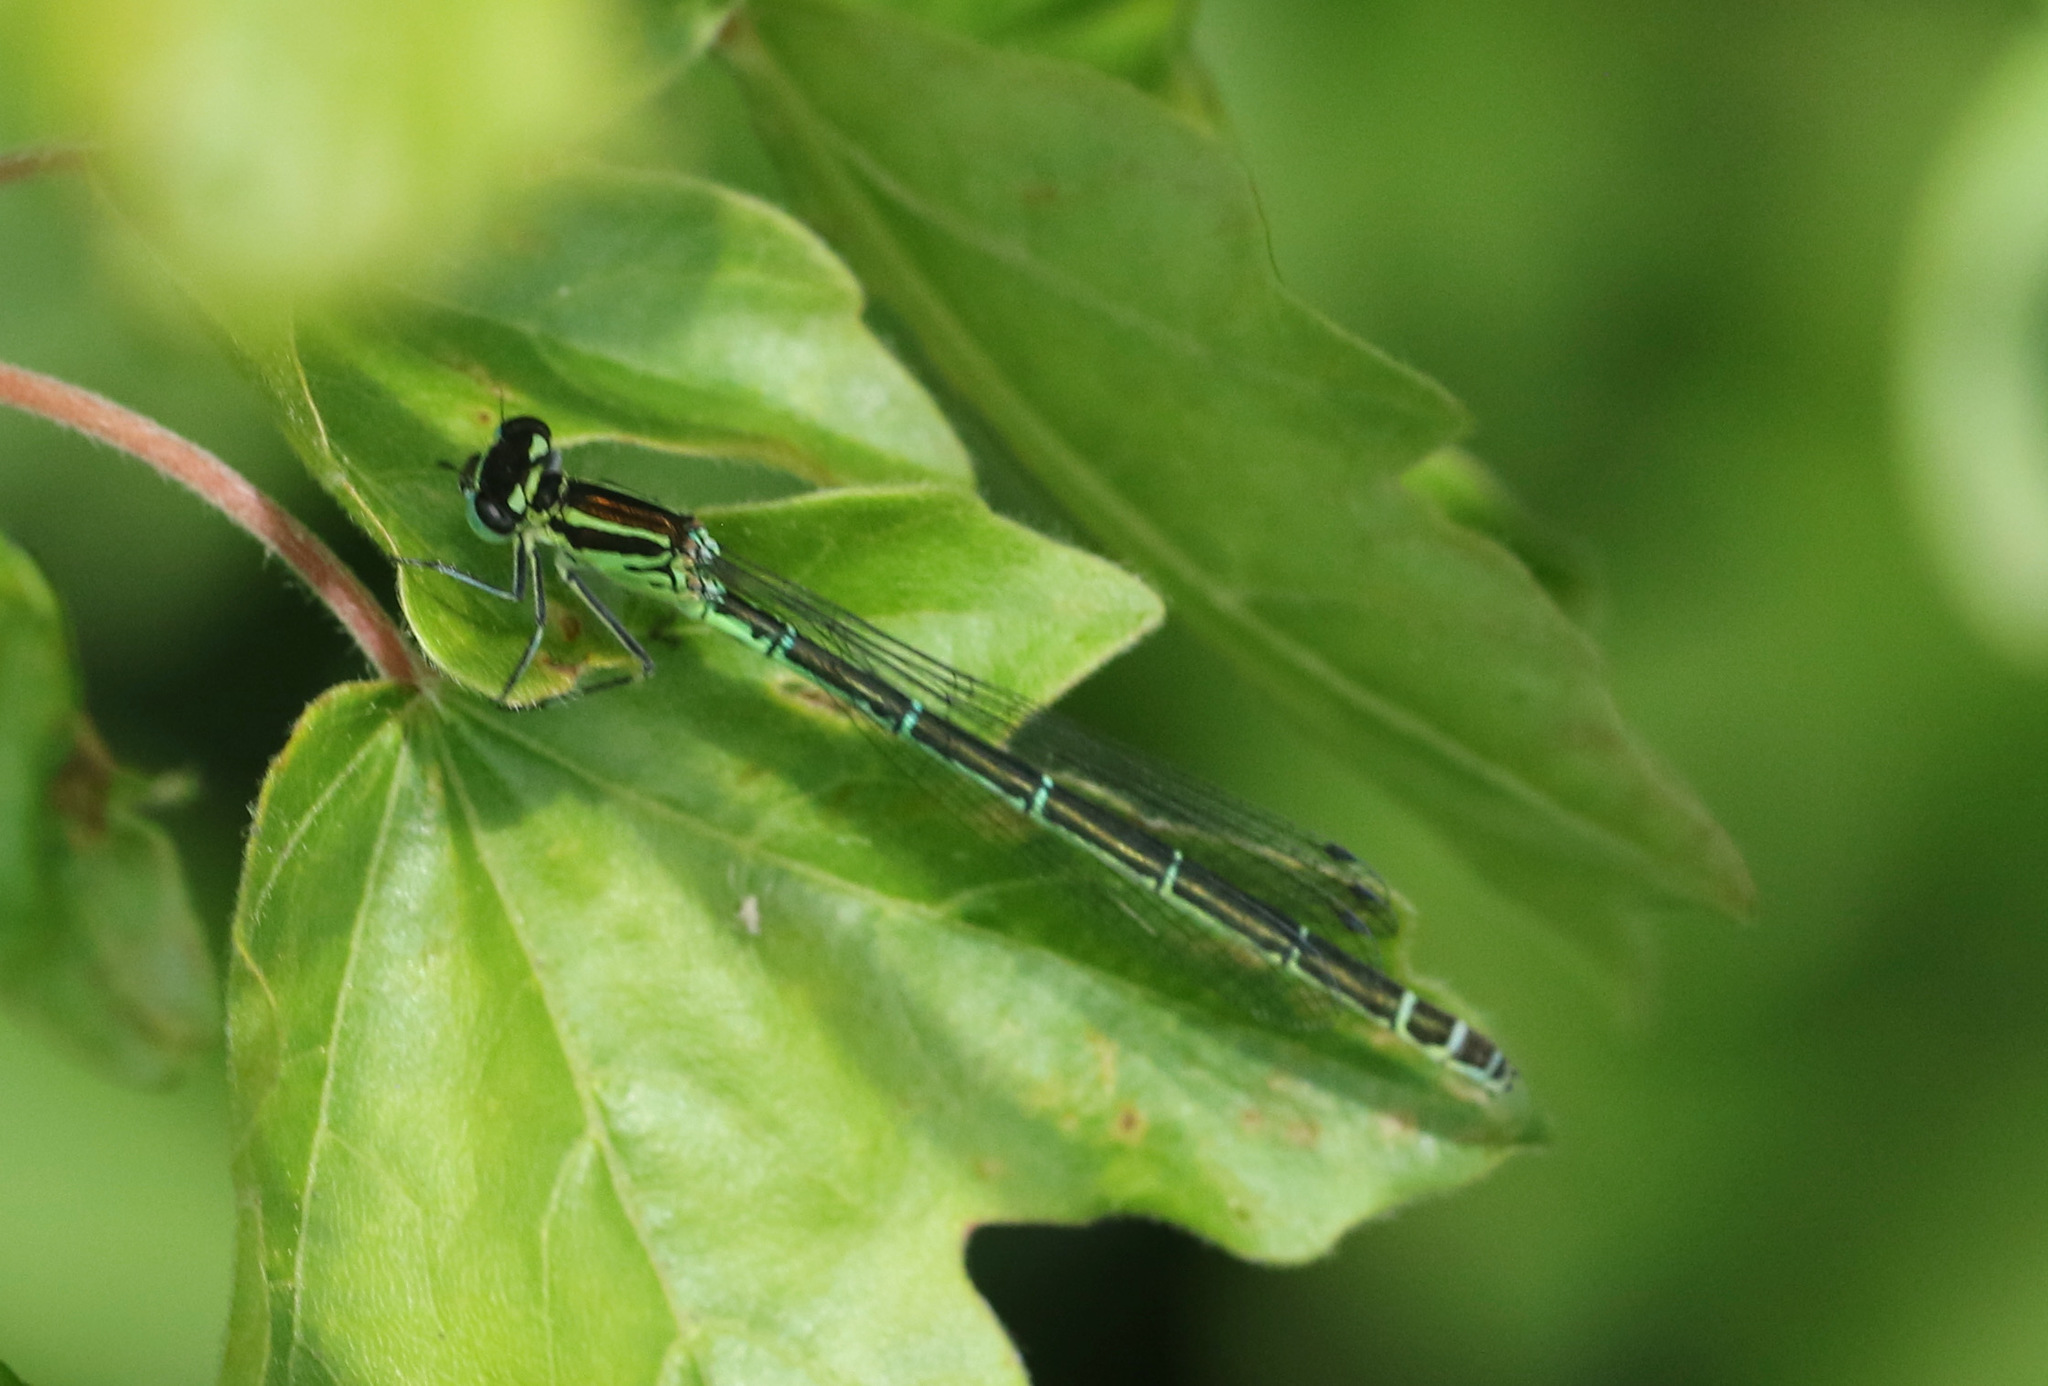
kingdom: Animalia
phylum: Arthropoda
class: Insecta
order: Odonata
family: Coenagrionidae
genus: Coenagrion
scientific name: Coenagrion puella
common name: Azure damselfly
